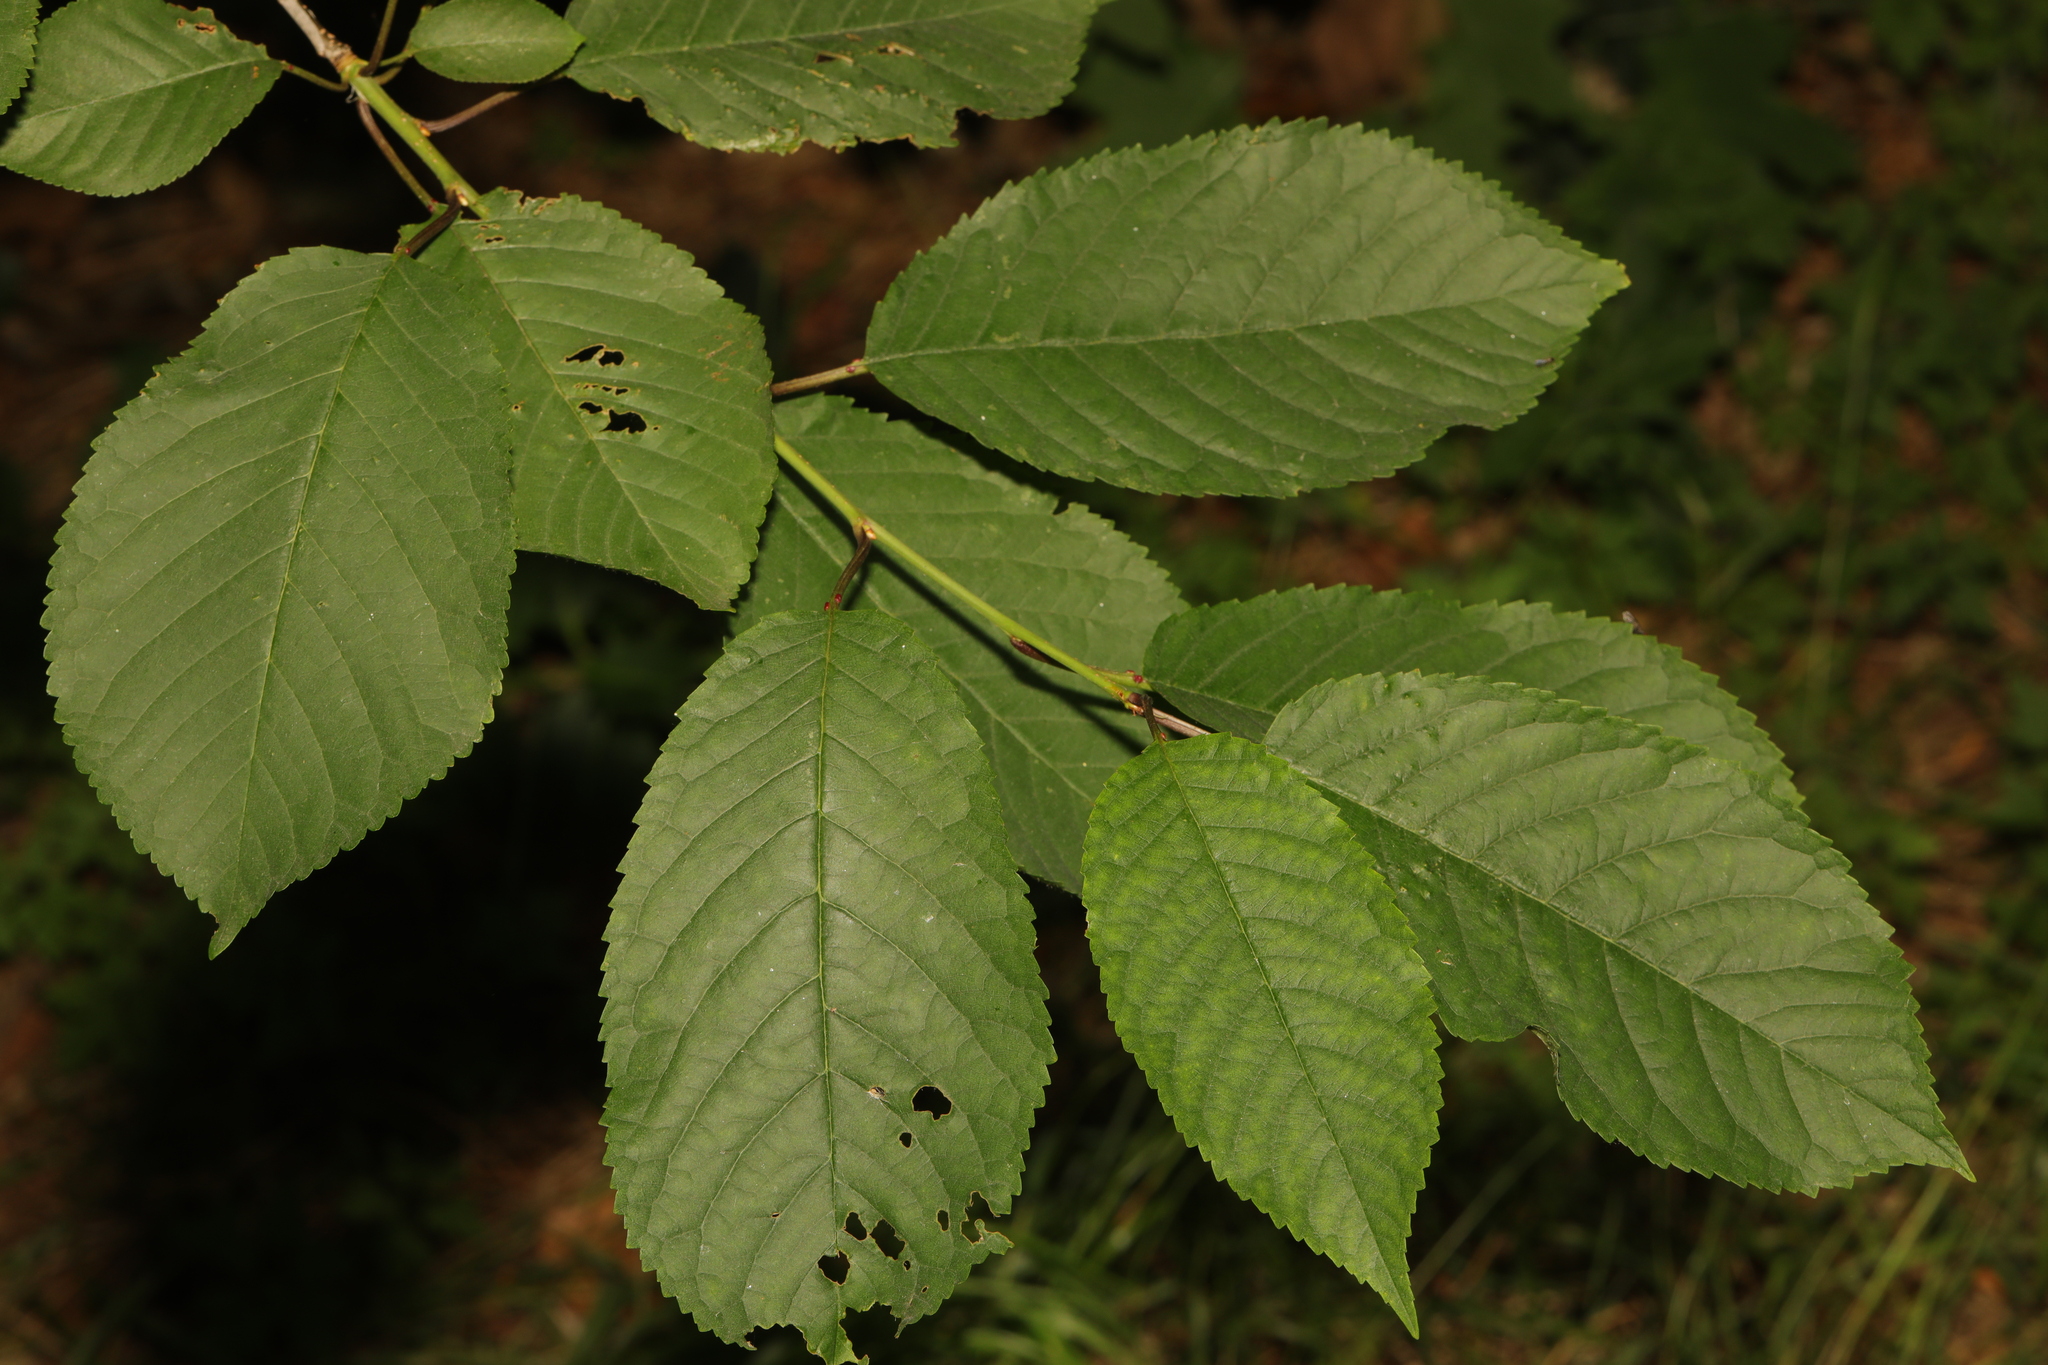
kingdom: Plantae
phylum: Tracheophyta
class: Magnoliopsida
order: Rosales
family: Rosaceae
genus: Prunus
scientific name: Prunus avium
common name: Sweet cherry
